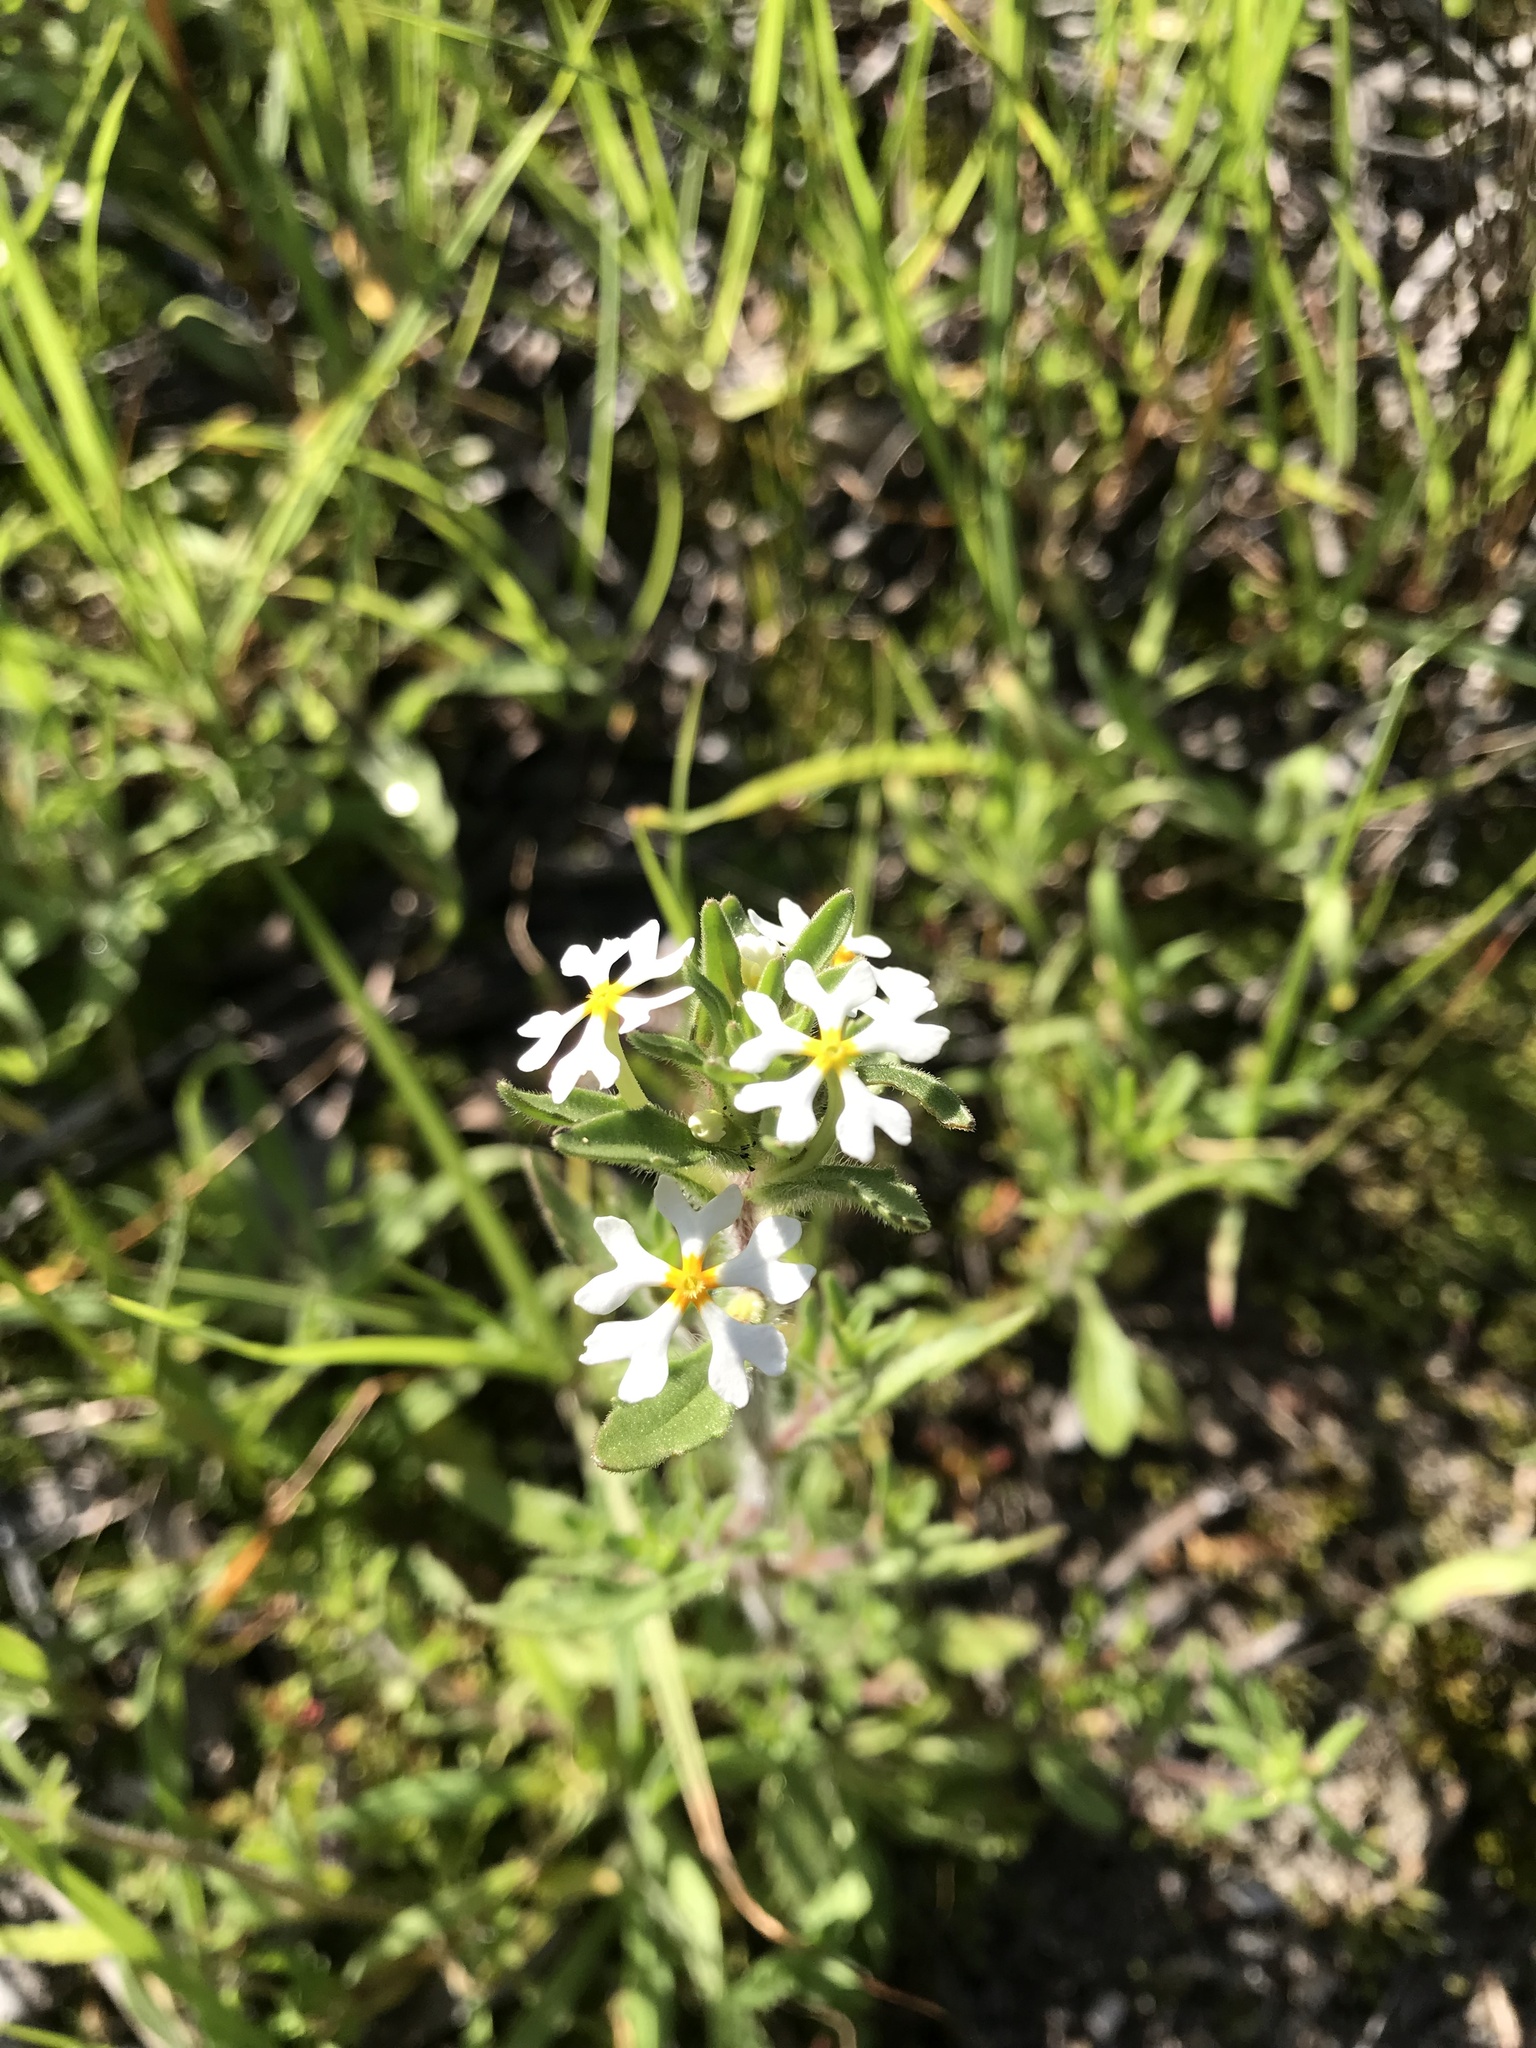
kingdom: Plantae
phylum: Tracheophyta
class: Magnoliopsida
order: Lamiales
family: Scrophulariaceae
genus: Zaluzianskya
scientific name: Zaluzianskya villosa
